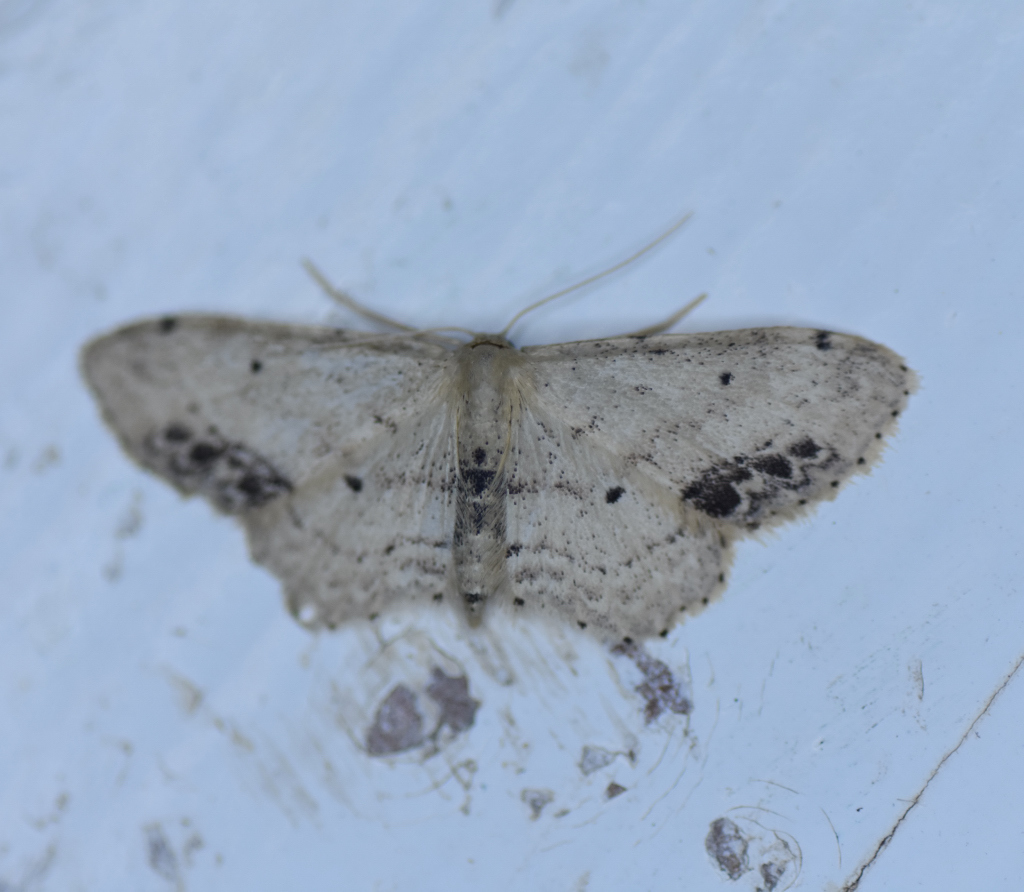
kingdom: Animalia
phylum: Arthropoda
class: Insecta
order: Lepidoptera
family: Geometridae
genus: Idaea
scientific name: Idaea dimidiata
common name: Single-dotted wave
